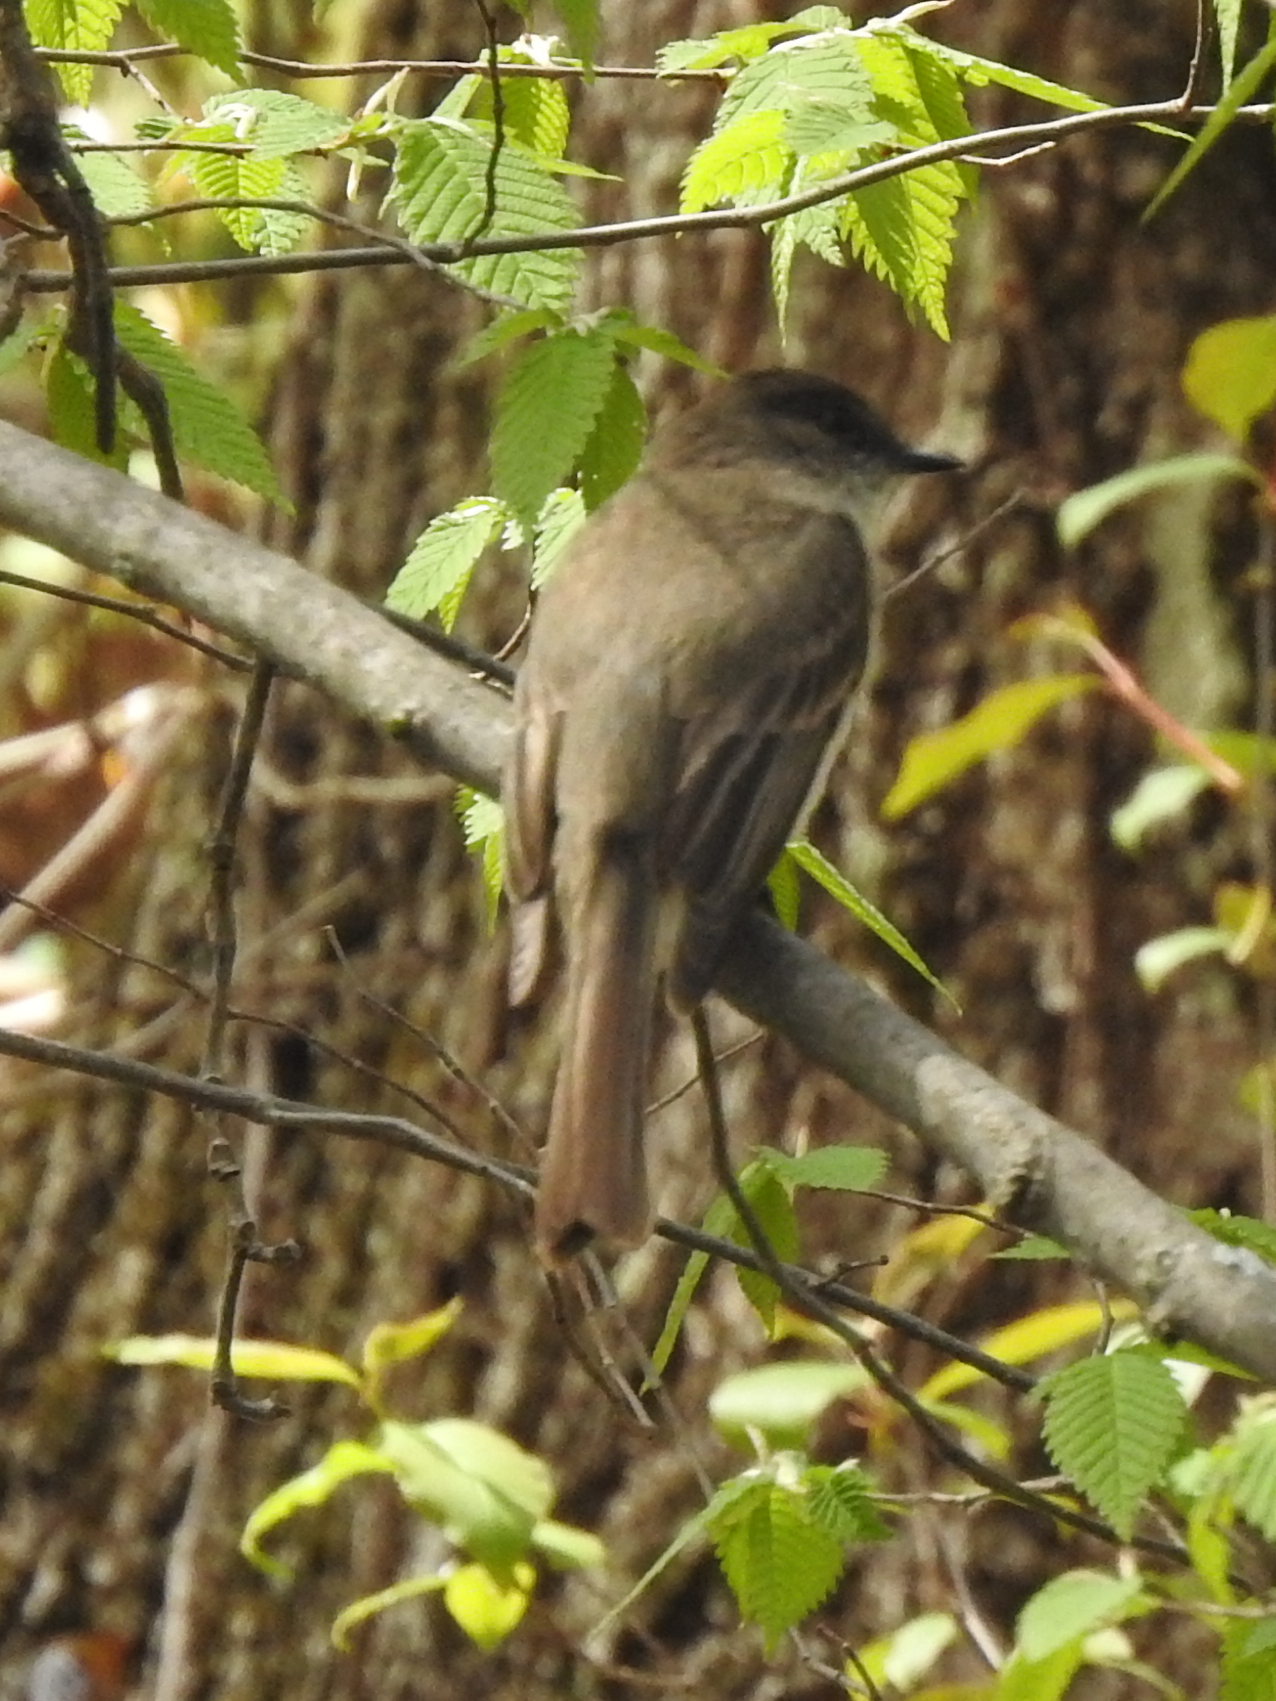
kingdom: Animalia
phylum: Chordata
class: Aves
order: Passeriformes
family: Tyrannidae
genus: Sayornis
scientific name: Sayornis phoebe
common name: Eastern phoebe
